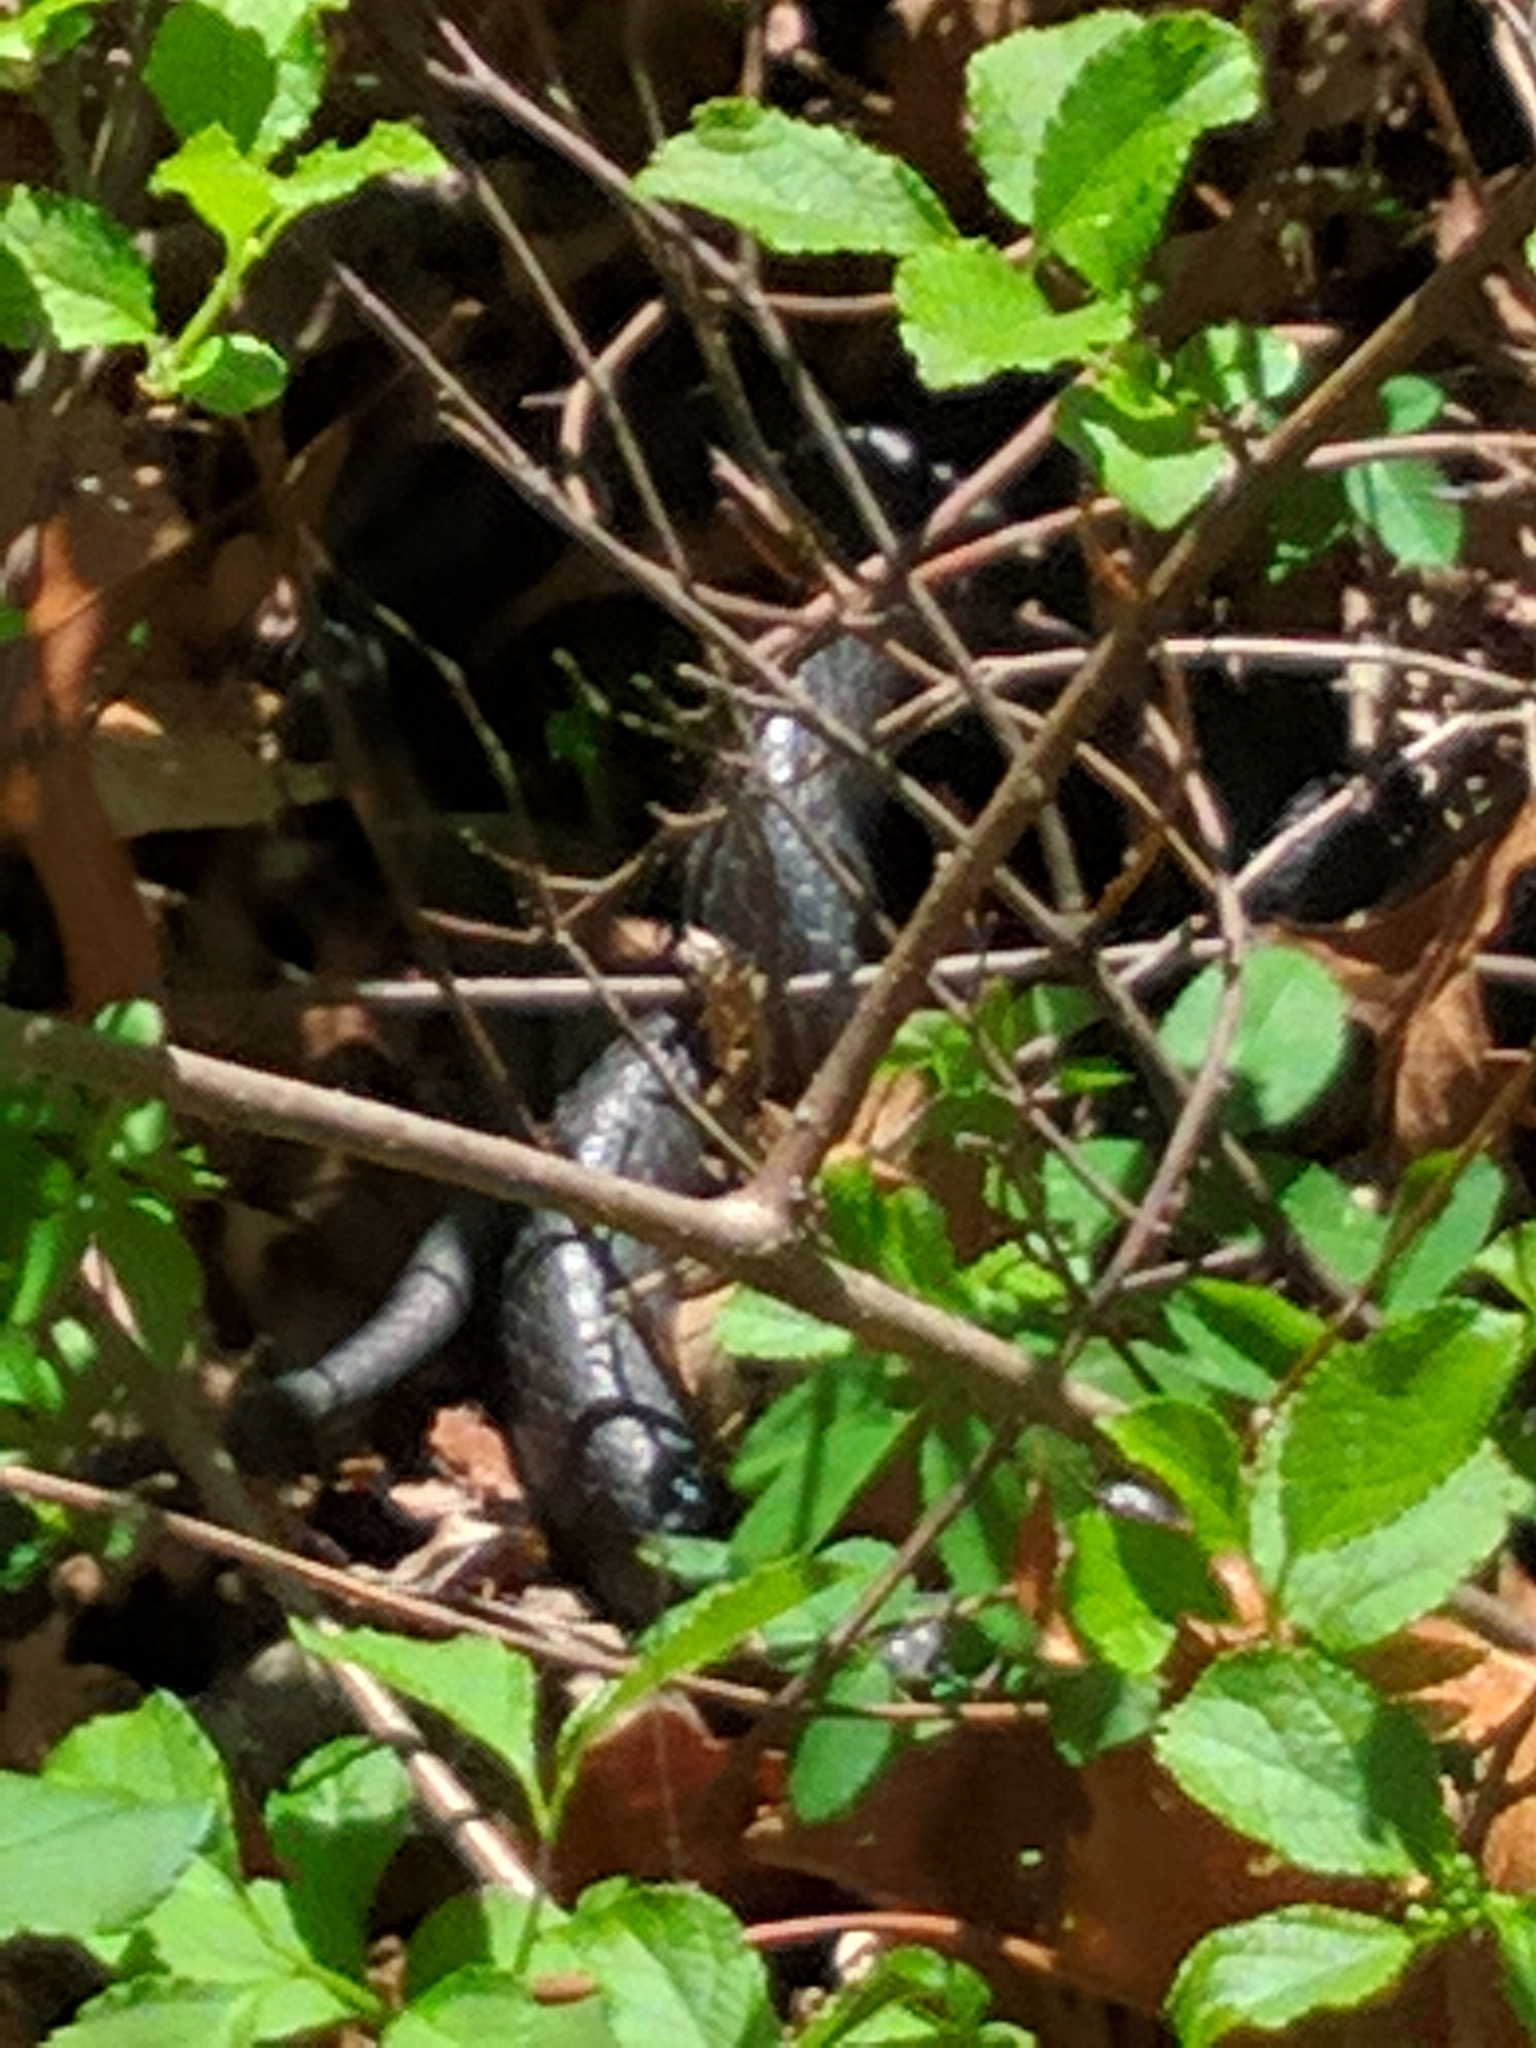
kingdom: Animalia
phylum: Chordata
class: Squamata
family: Colubridae
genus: Coluber
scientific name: Coluber constrictor
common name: Eastern racer
